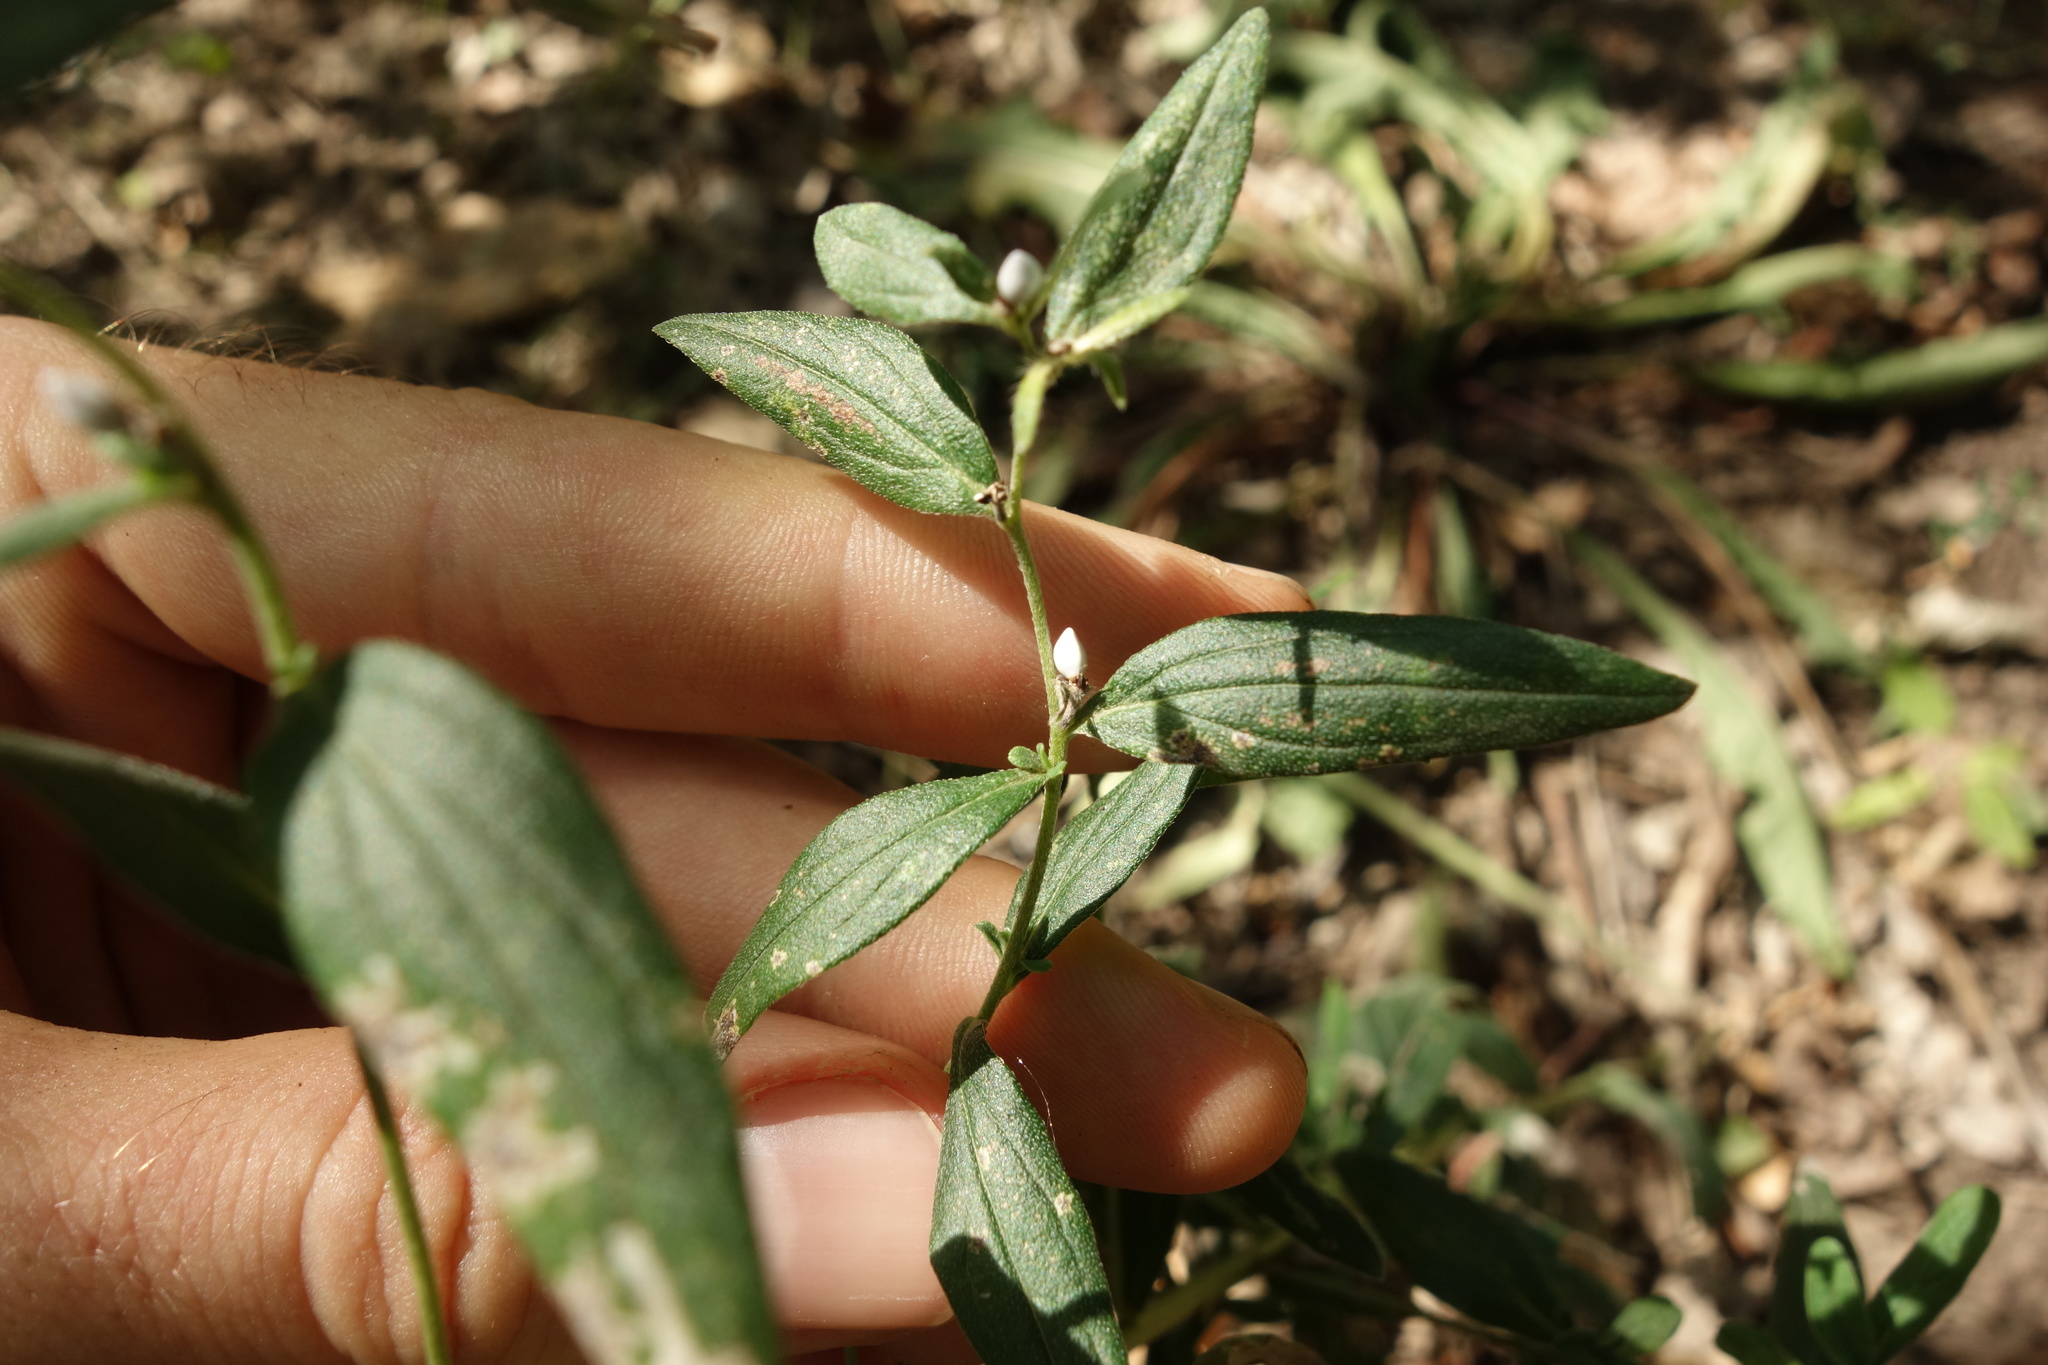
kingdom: Plantae
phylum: Tracheophyta
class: Magnoliopsida
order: Boraginales
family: Boraginaceae
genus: Lithospermum
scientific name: Lithospermum officinale
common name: Common gromwell
